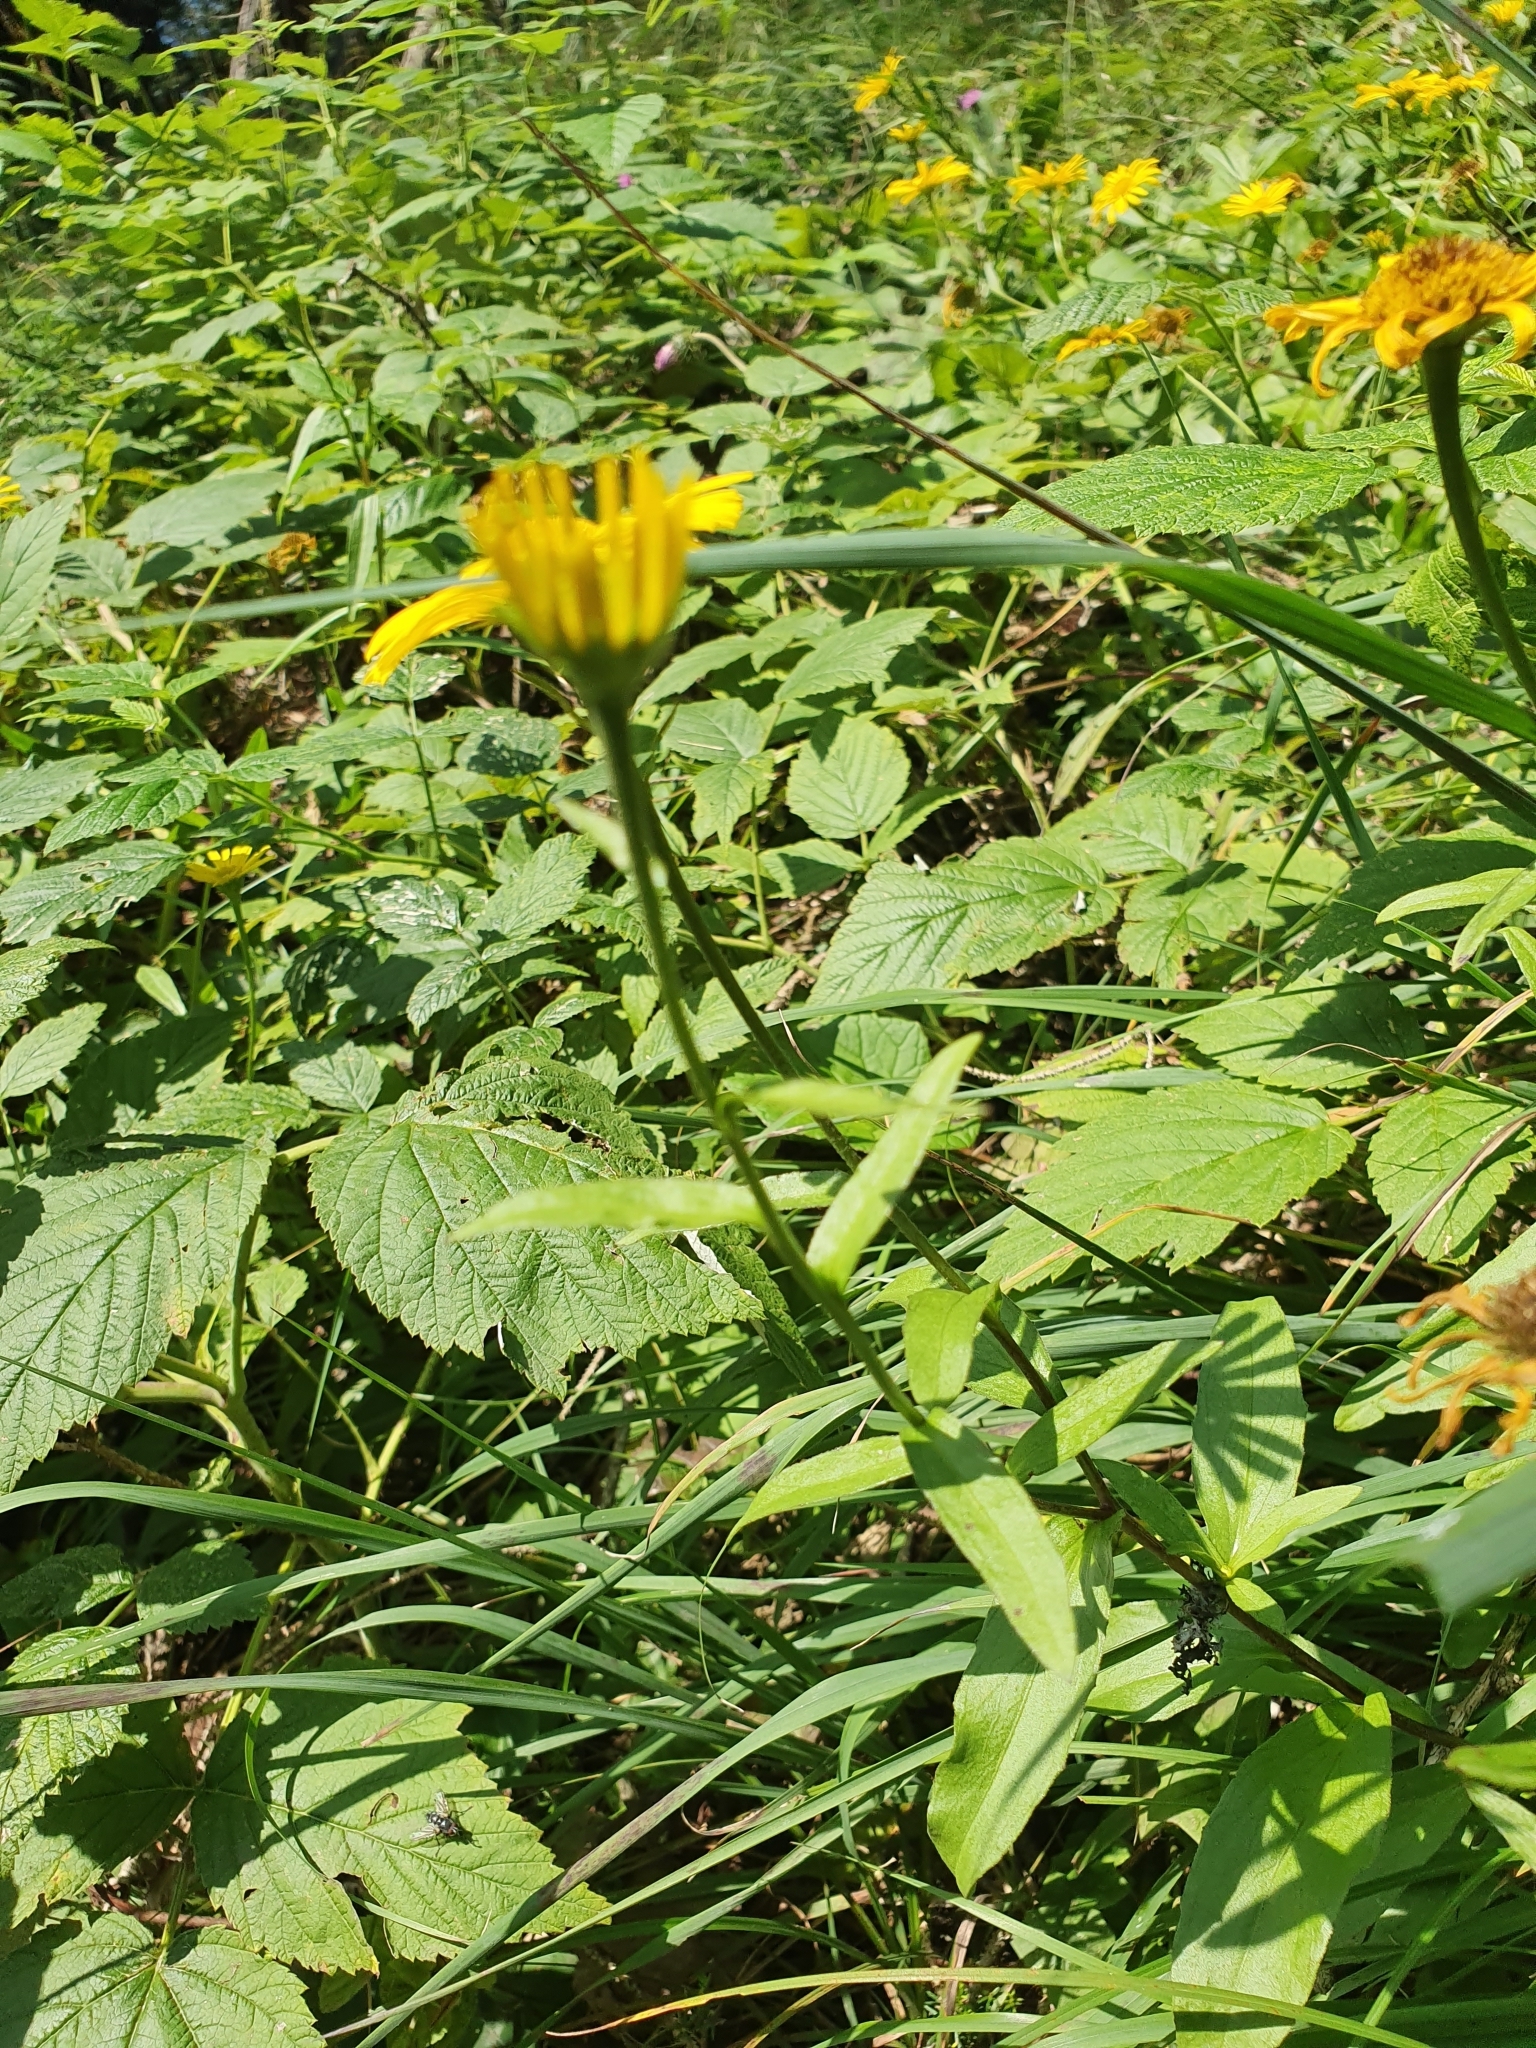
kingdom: Plantae
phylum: Tracheophyta
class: Magnoliopsida
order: Asterales
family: Asteraceae
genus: Buphthalmum
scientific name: Buphthalmum salicifolium
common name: Willow-leaved yellow-oxeye
